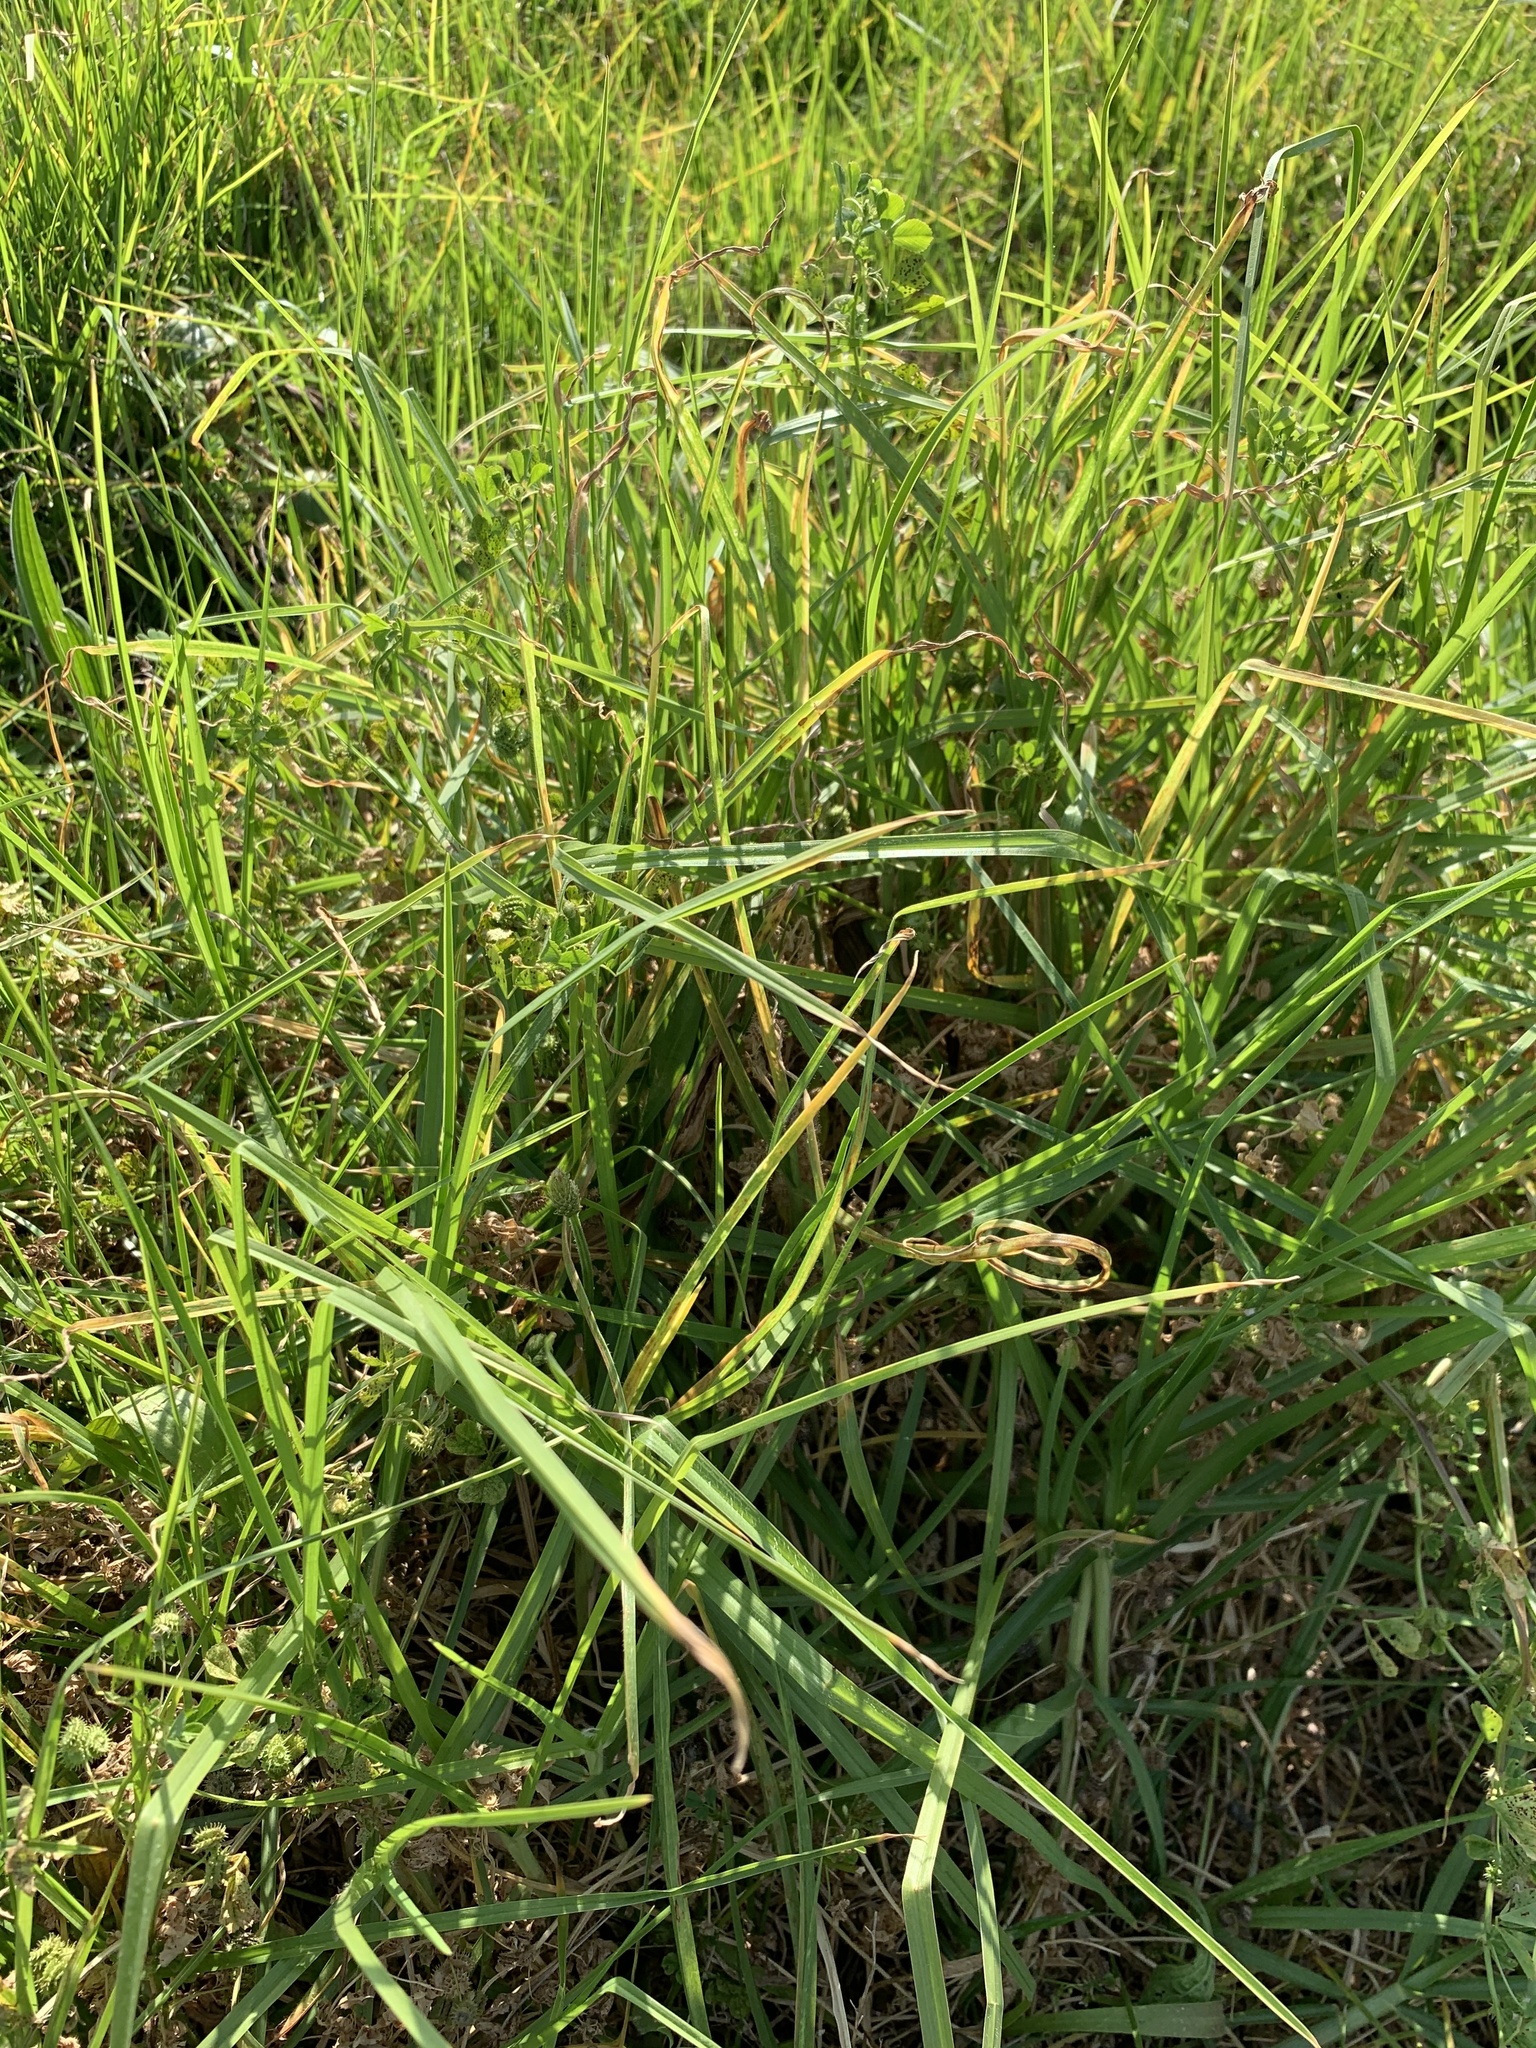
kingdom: Plantae
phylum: Tracheophyta
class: Liliopsida
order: Poales
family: Poaceae
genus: Cenchrus
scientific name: Cenchrus clandestinus
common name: Kikuyugrass
